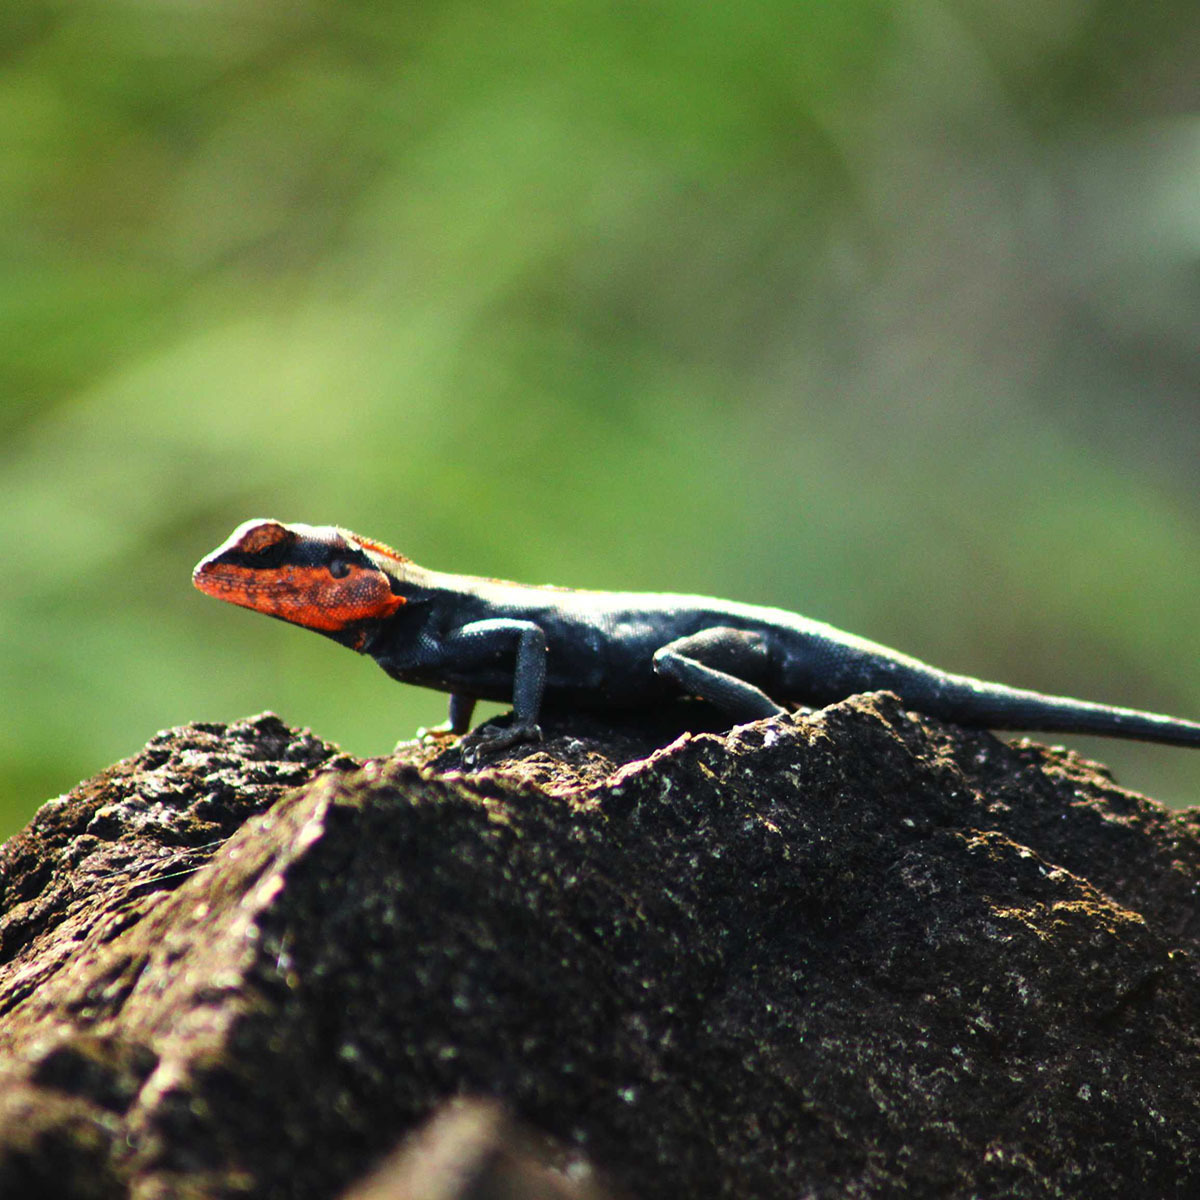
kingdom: Animalia
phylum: Chordata
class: Squamata
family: Agamidae
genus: Psammophilus
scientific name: Psammophilus dorsalis
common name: South indian rock agama
